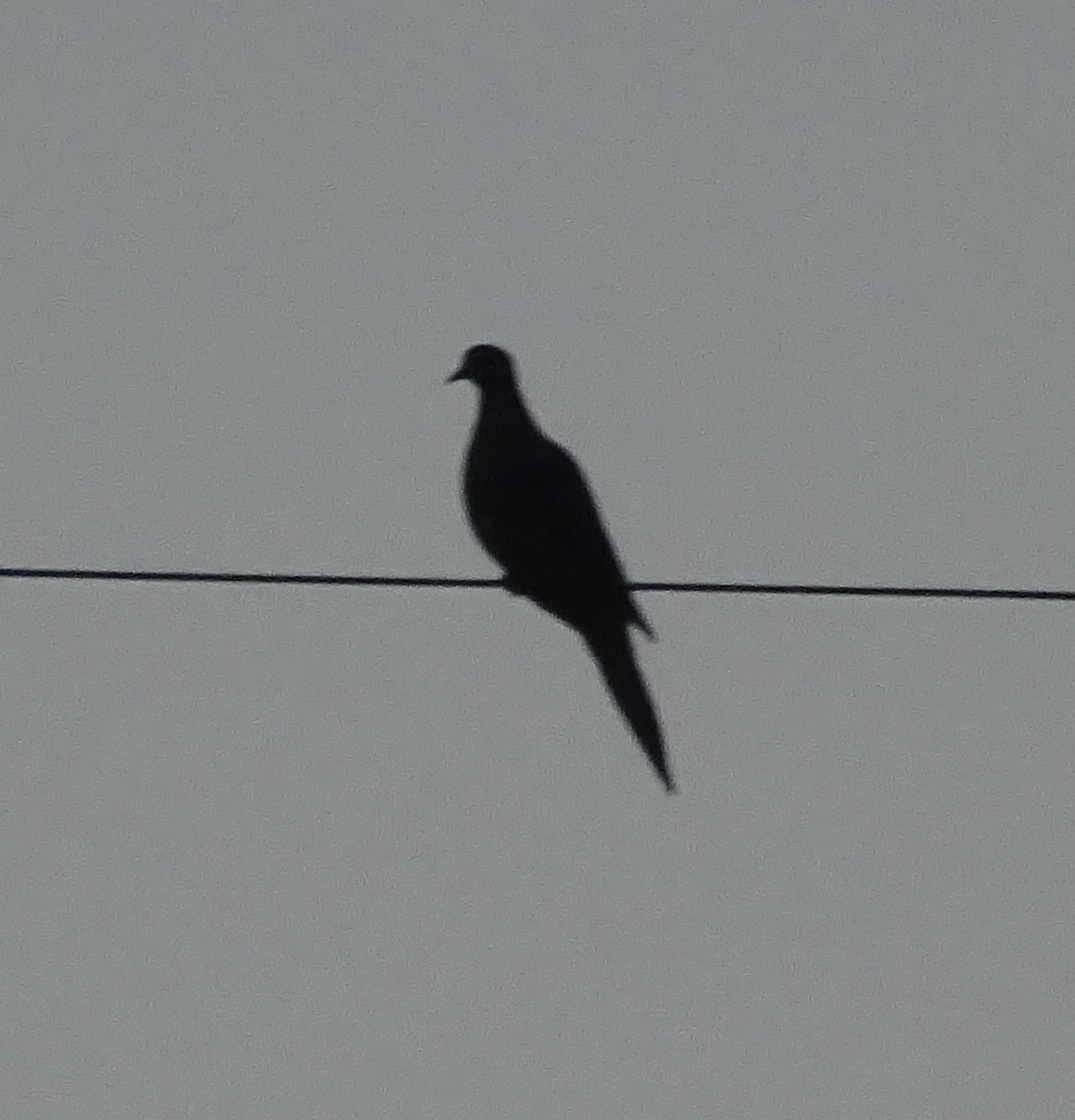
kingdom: Animalia
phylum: Chordata
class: Aves
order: Columbiformes
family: Columbidae
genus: Zenaida
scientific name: Zenaida macroura
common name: Mourning dove
